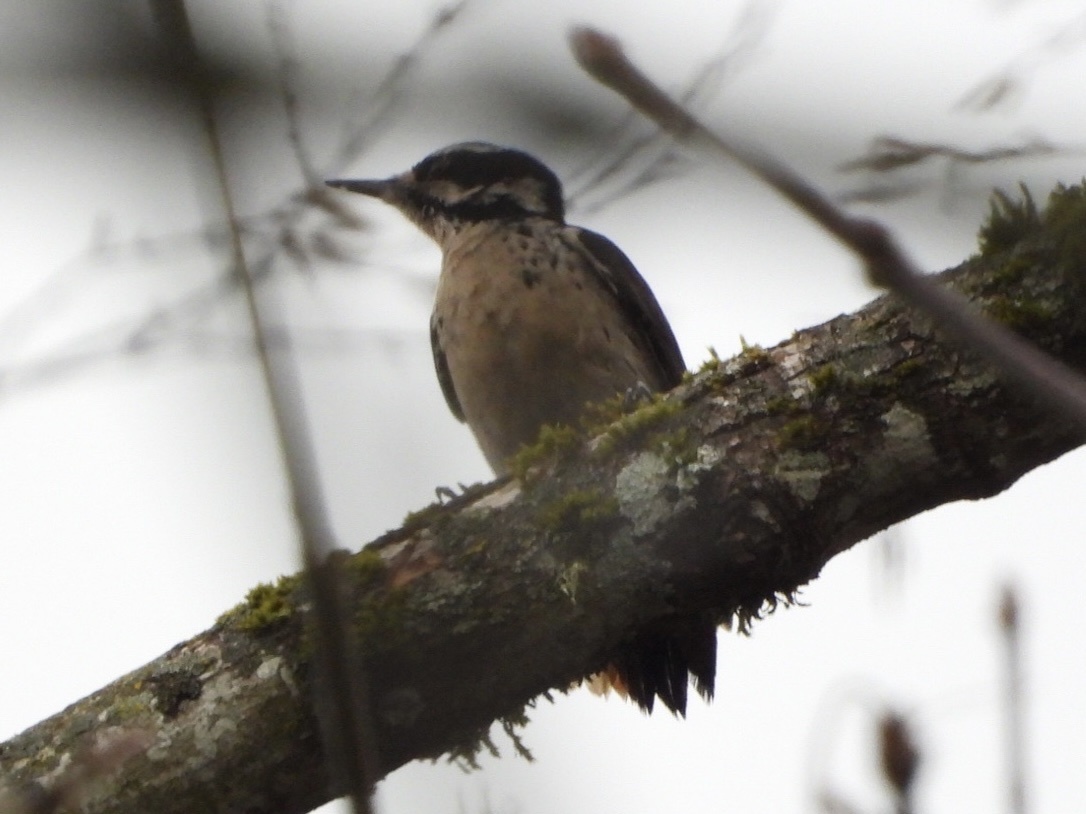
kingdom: Animalia
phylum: Chordata
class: Aves
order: Piciformes
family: Picidae
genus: Leuconotopicus
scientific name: Leuconotopicus villosus
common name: Hairy woodpecker
